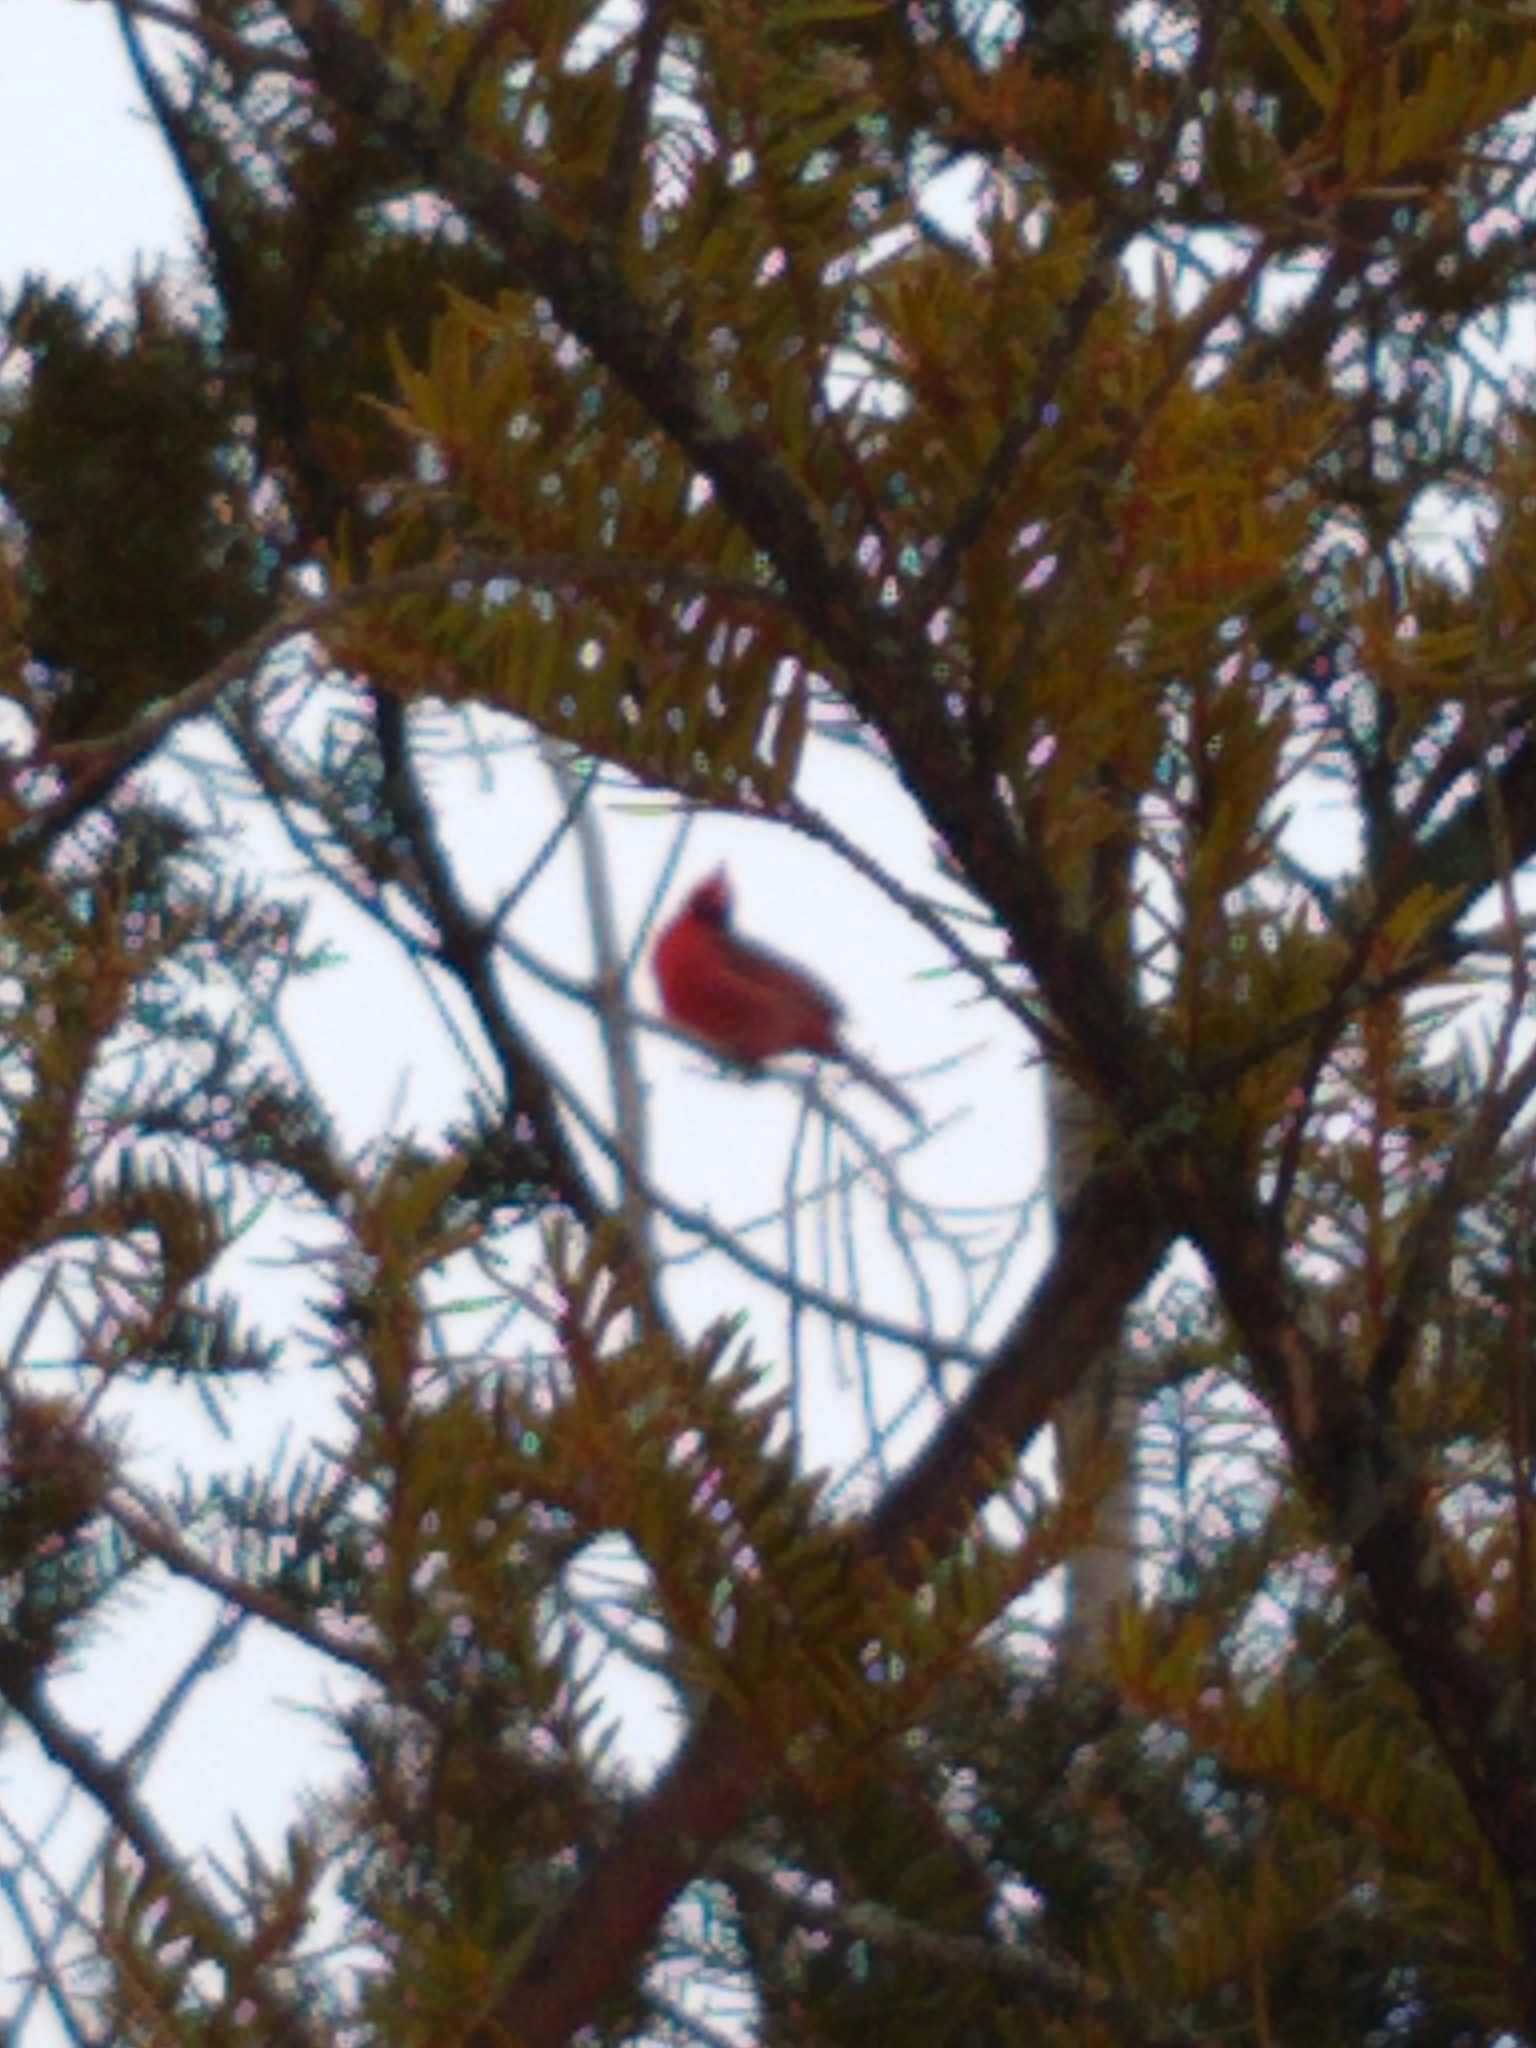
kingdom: Animalia
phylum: Chordata
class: Aves
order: Passeriformes
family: Cardinalidae
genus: Cardinalis
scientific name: Cardinalis cardinalis
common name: Northern cardinal
